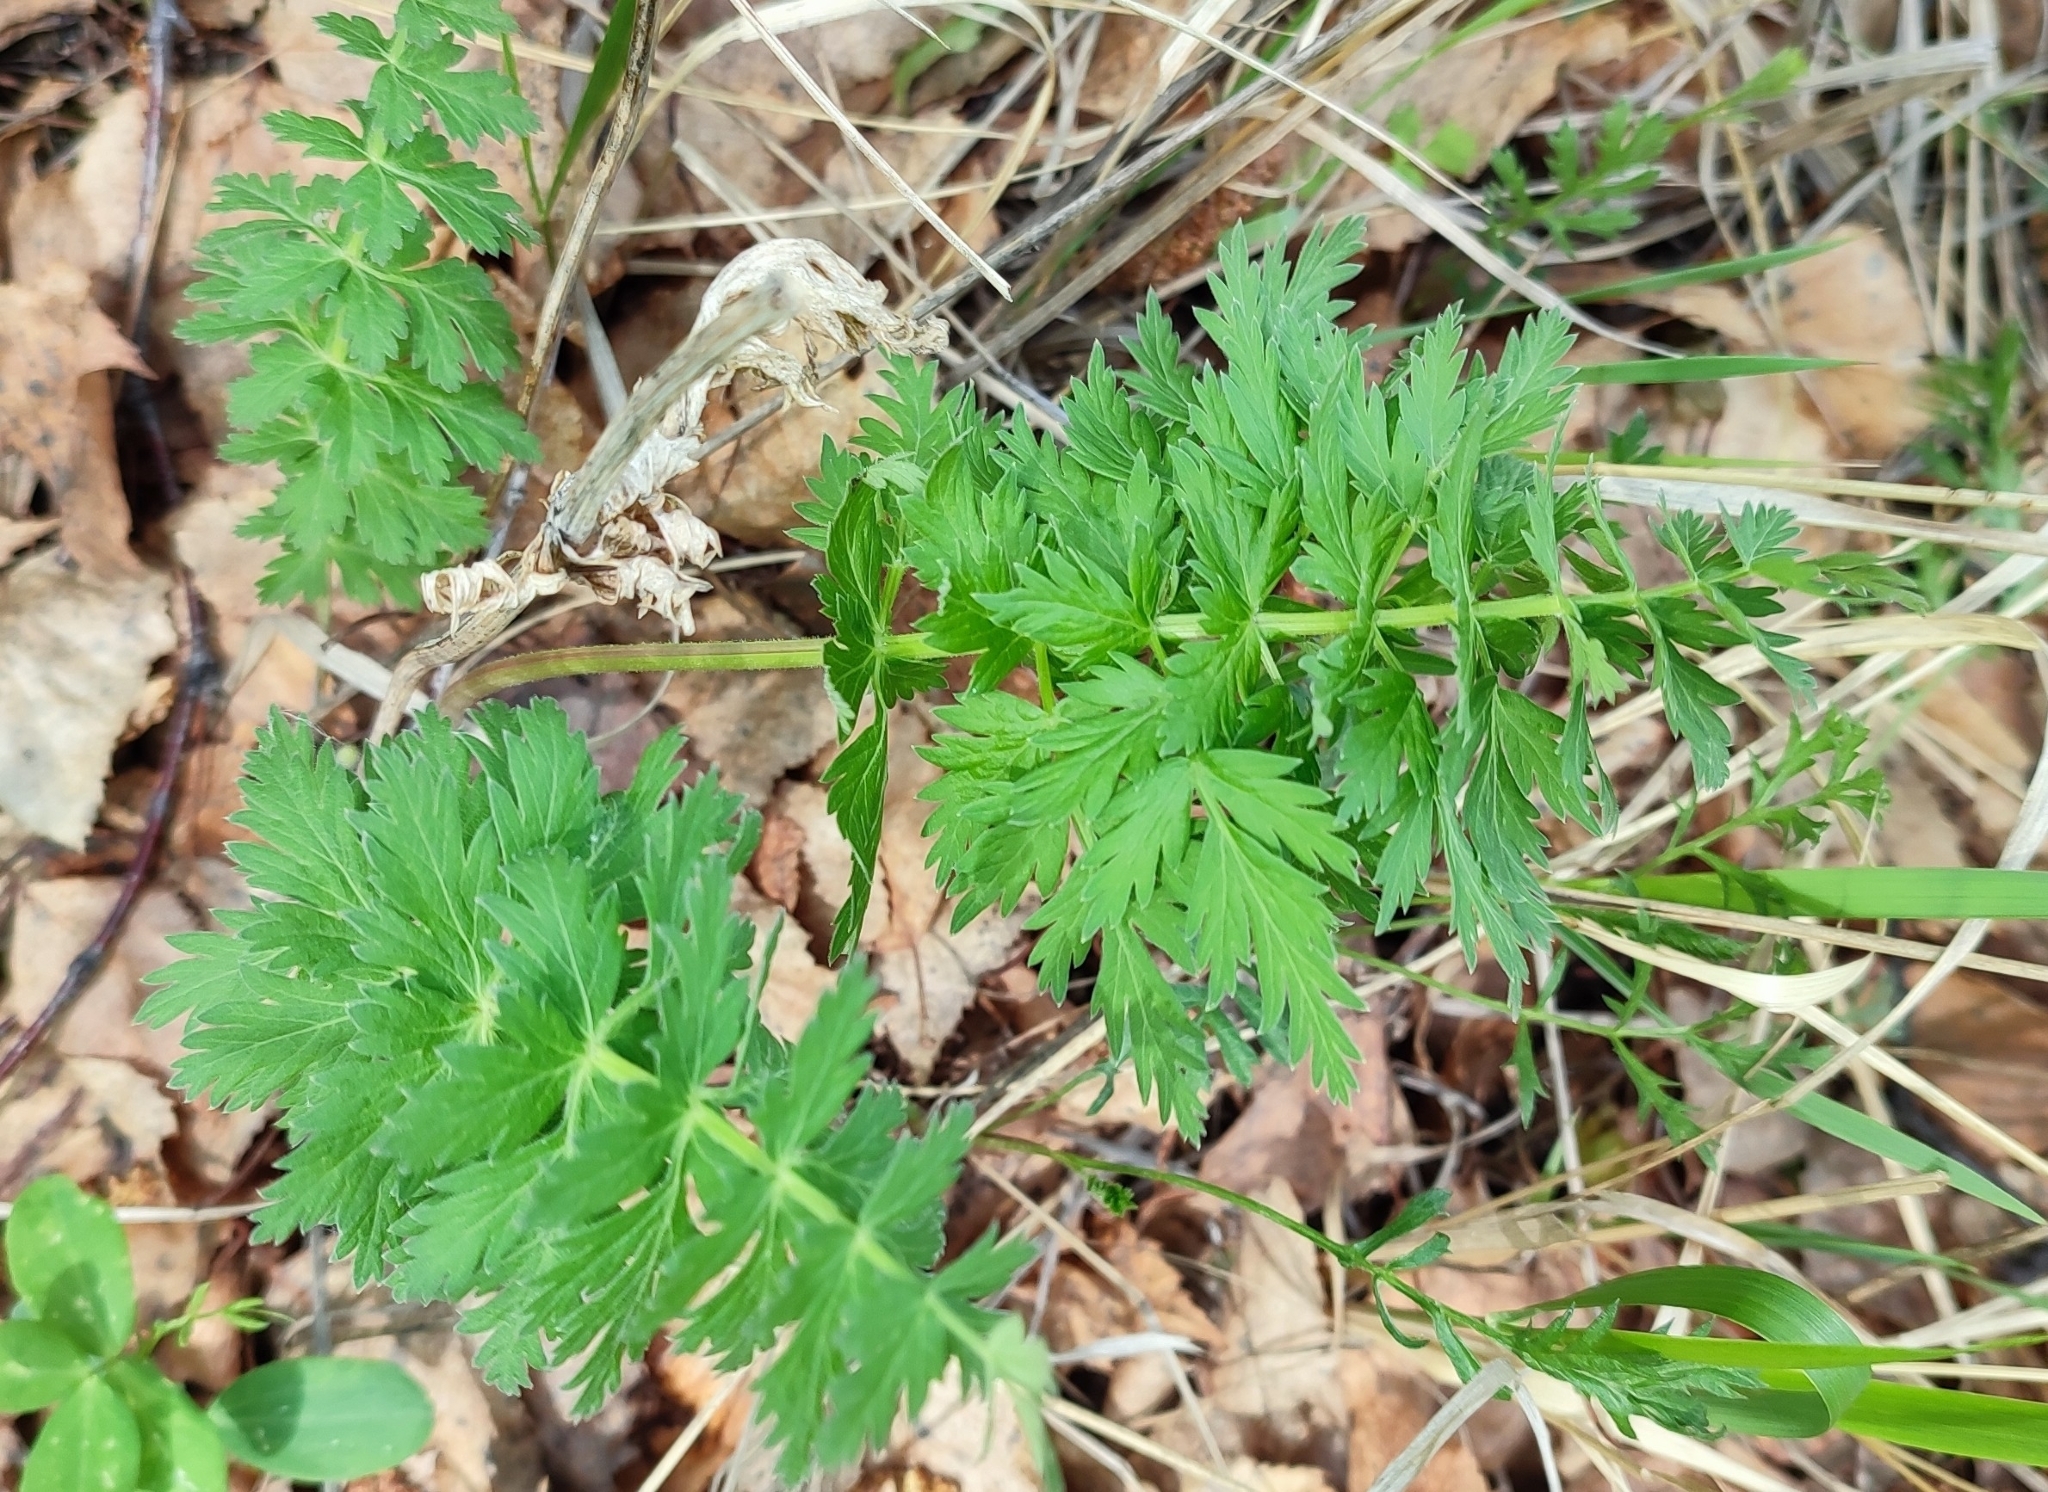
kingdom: Plantae
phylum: Tracheophyta
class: Magnoliopsida
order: Apiales
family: Apiaceae
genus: Seseli
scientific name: Seseli libanotis
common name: Mooncarrot
